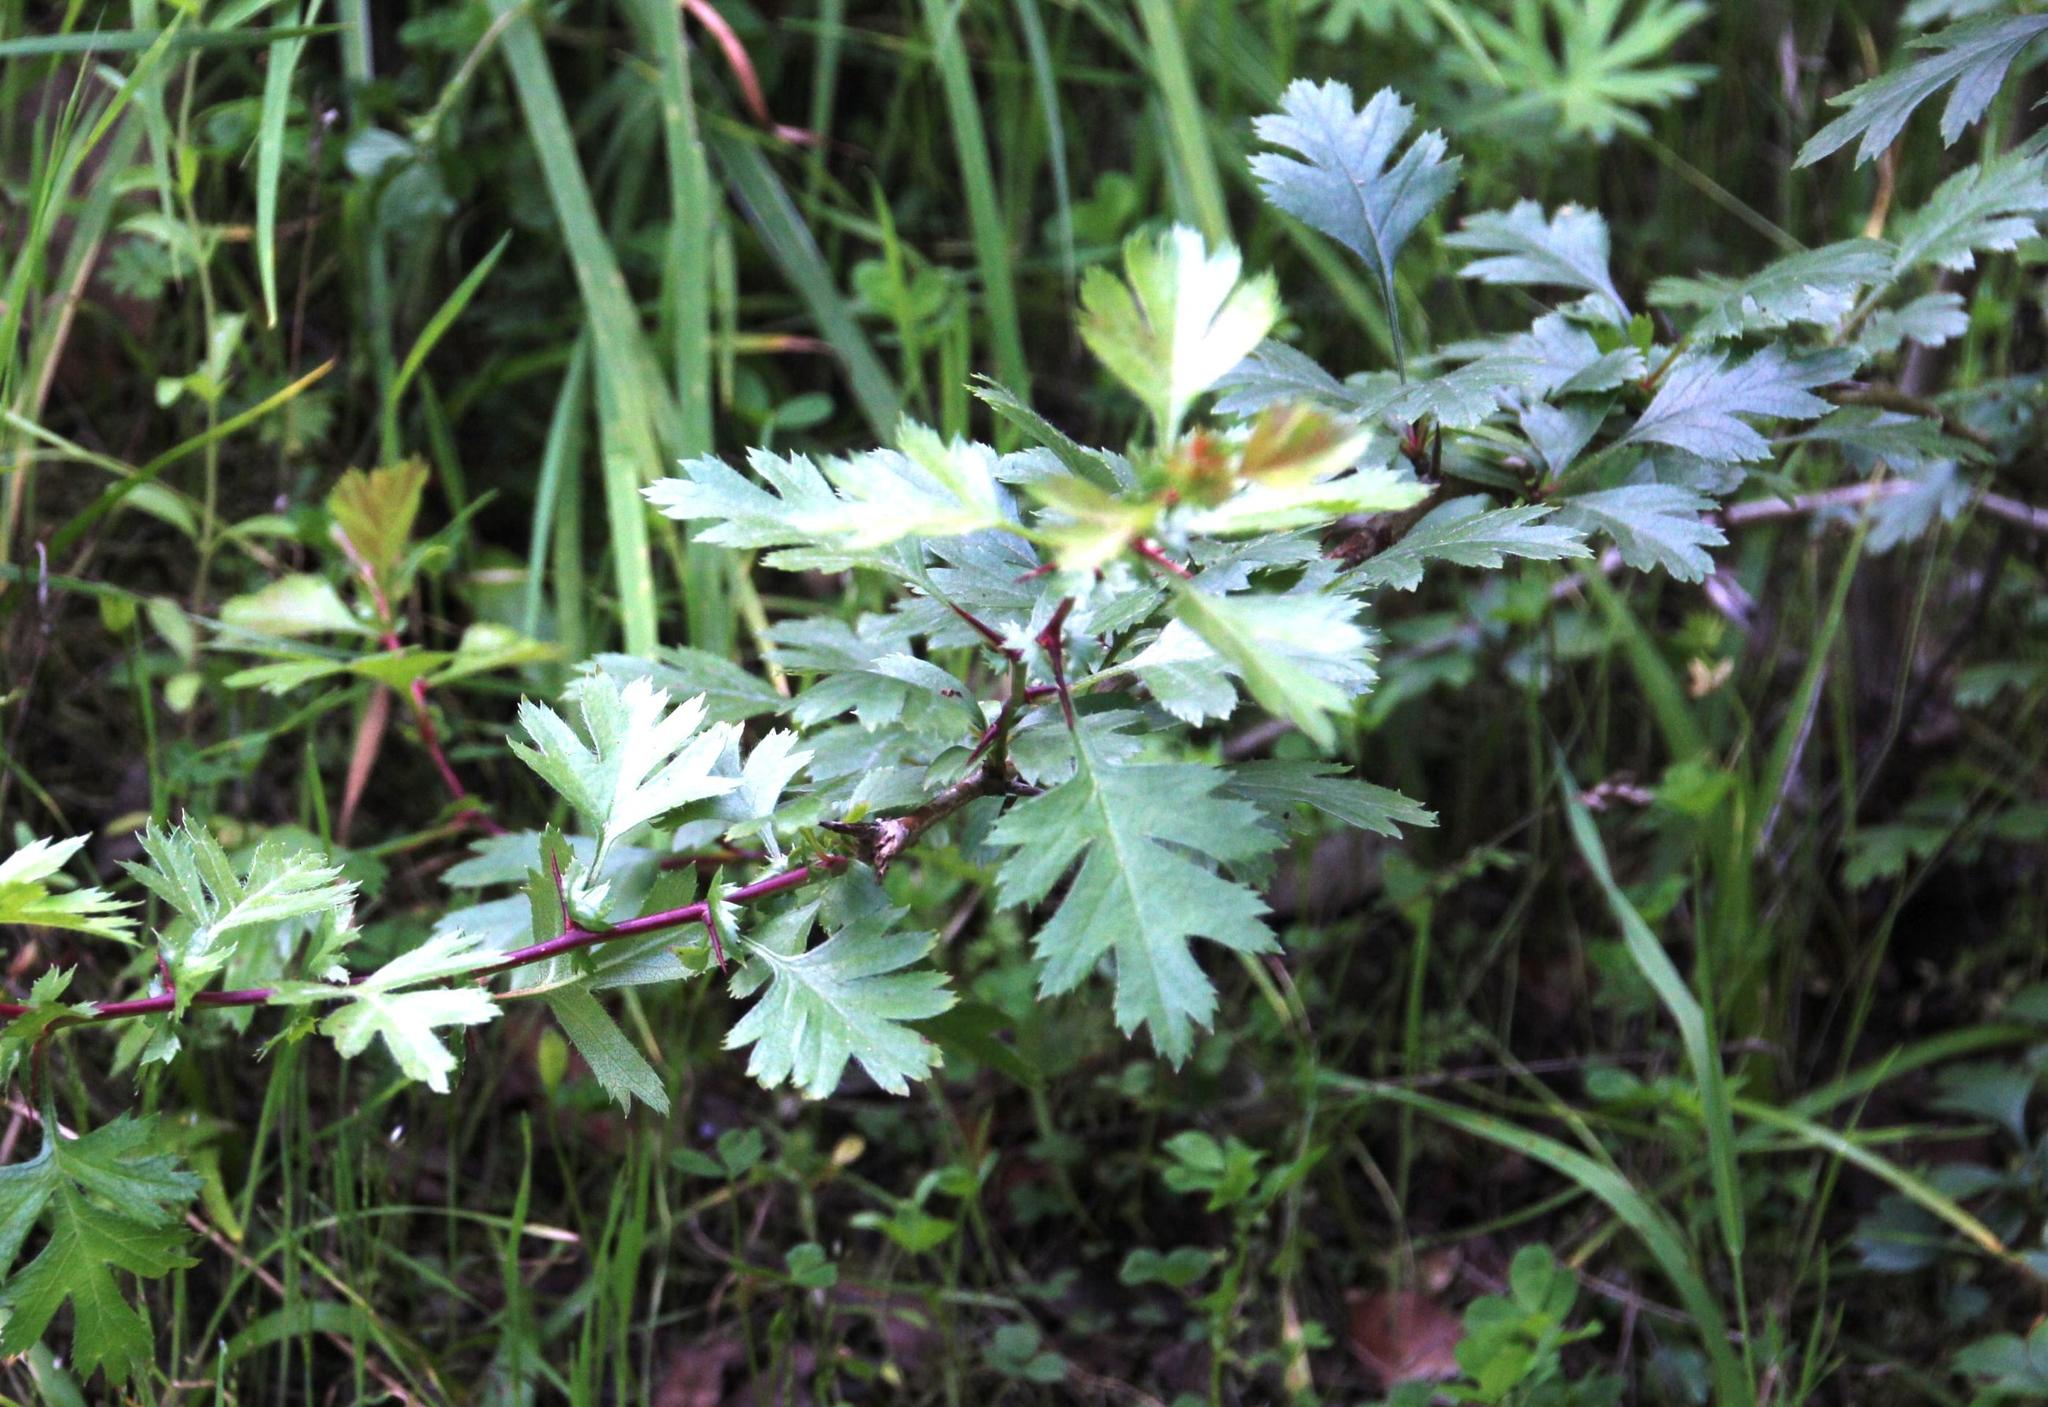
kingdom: Plantae
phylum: Tracheophyta
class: Magnoliopsida
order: Rosales
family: Rosaceae
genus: Crataegus
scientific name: Crataegus monogyna
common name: Hawthorn
